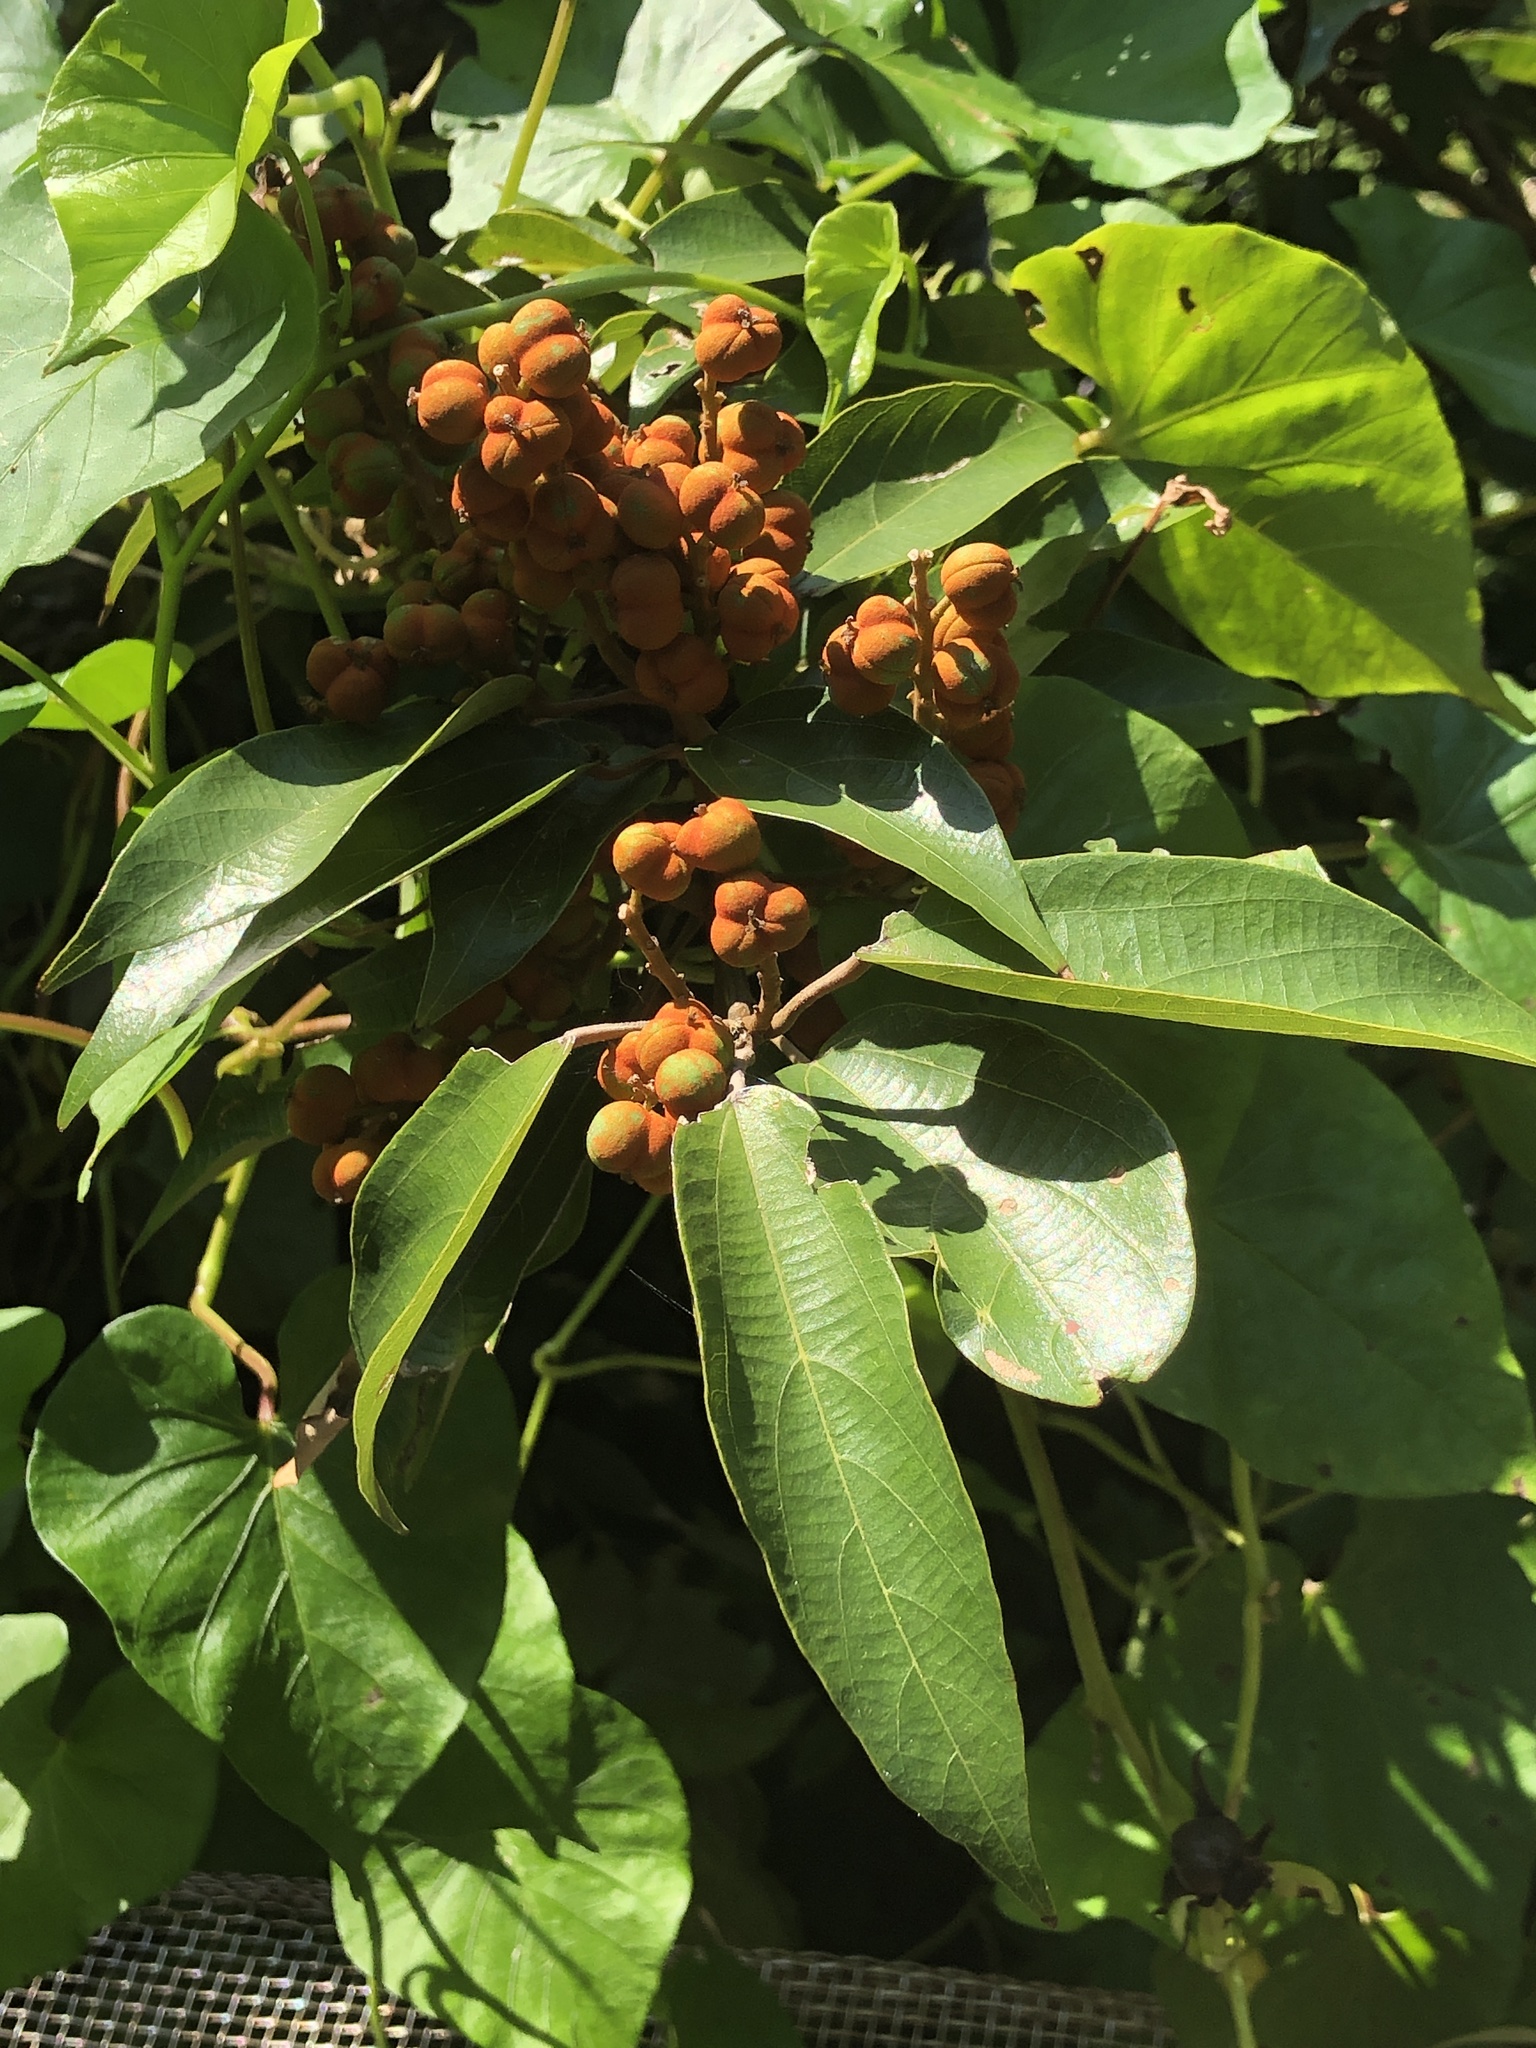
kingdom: Plantae
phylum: Tracheophyta
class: Magnoliopsida
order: Malpighiales
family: Euphorbiaceae
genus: Mallotus
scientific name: Mallotus philippensis
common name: Kamala tree
